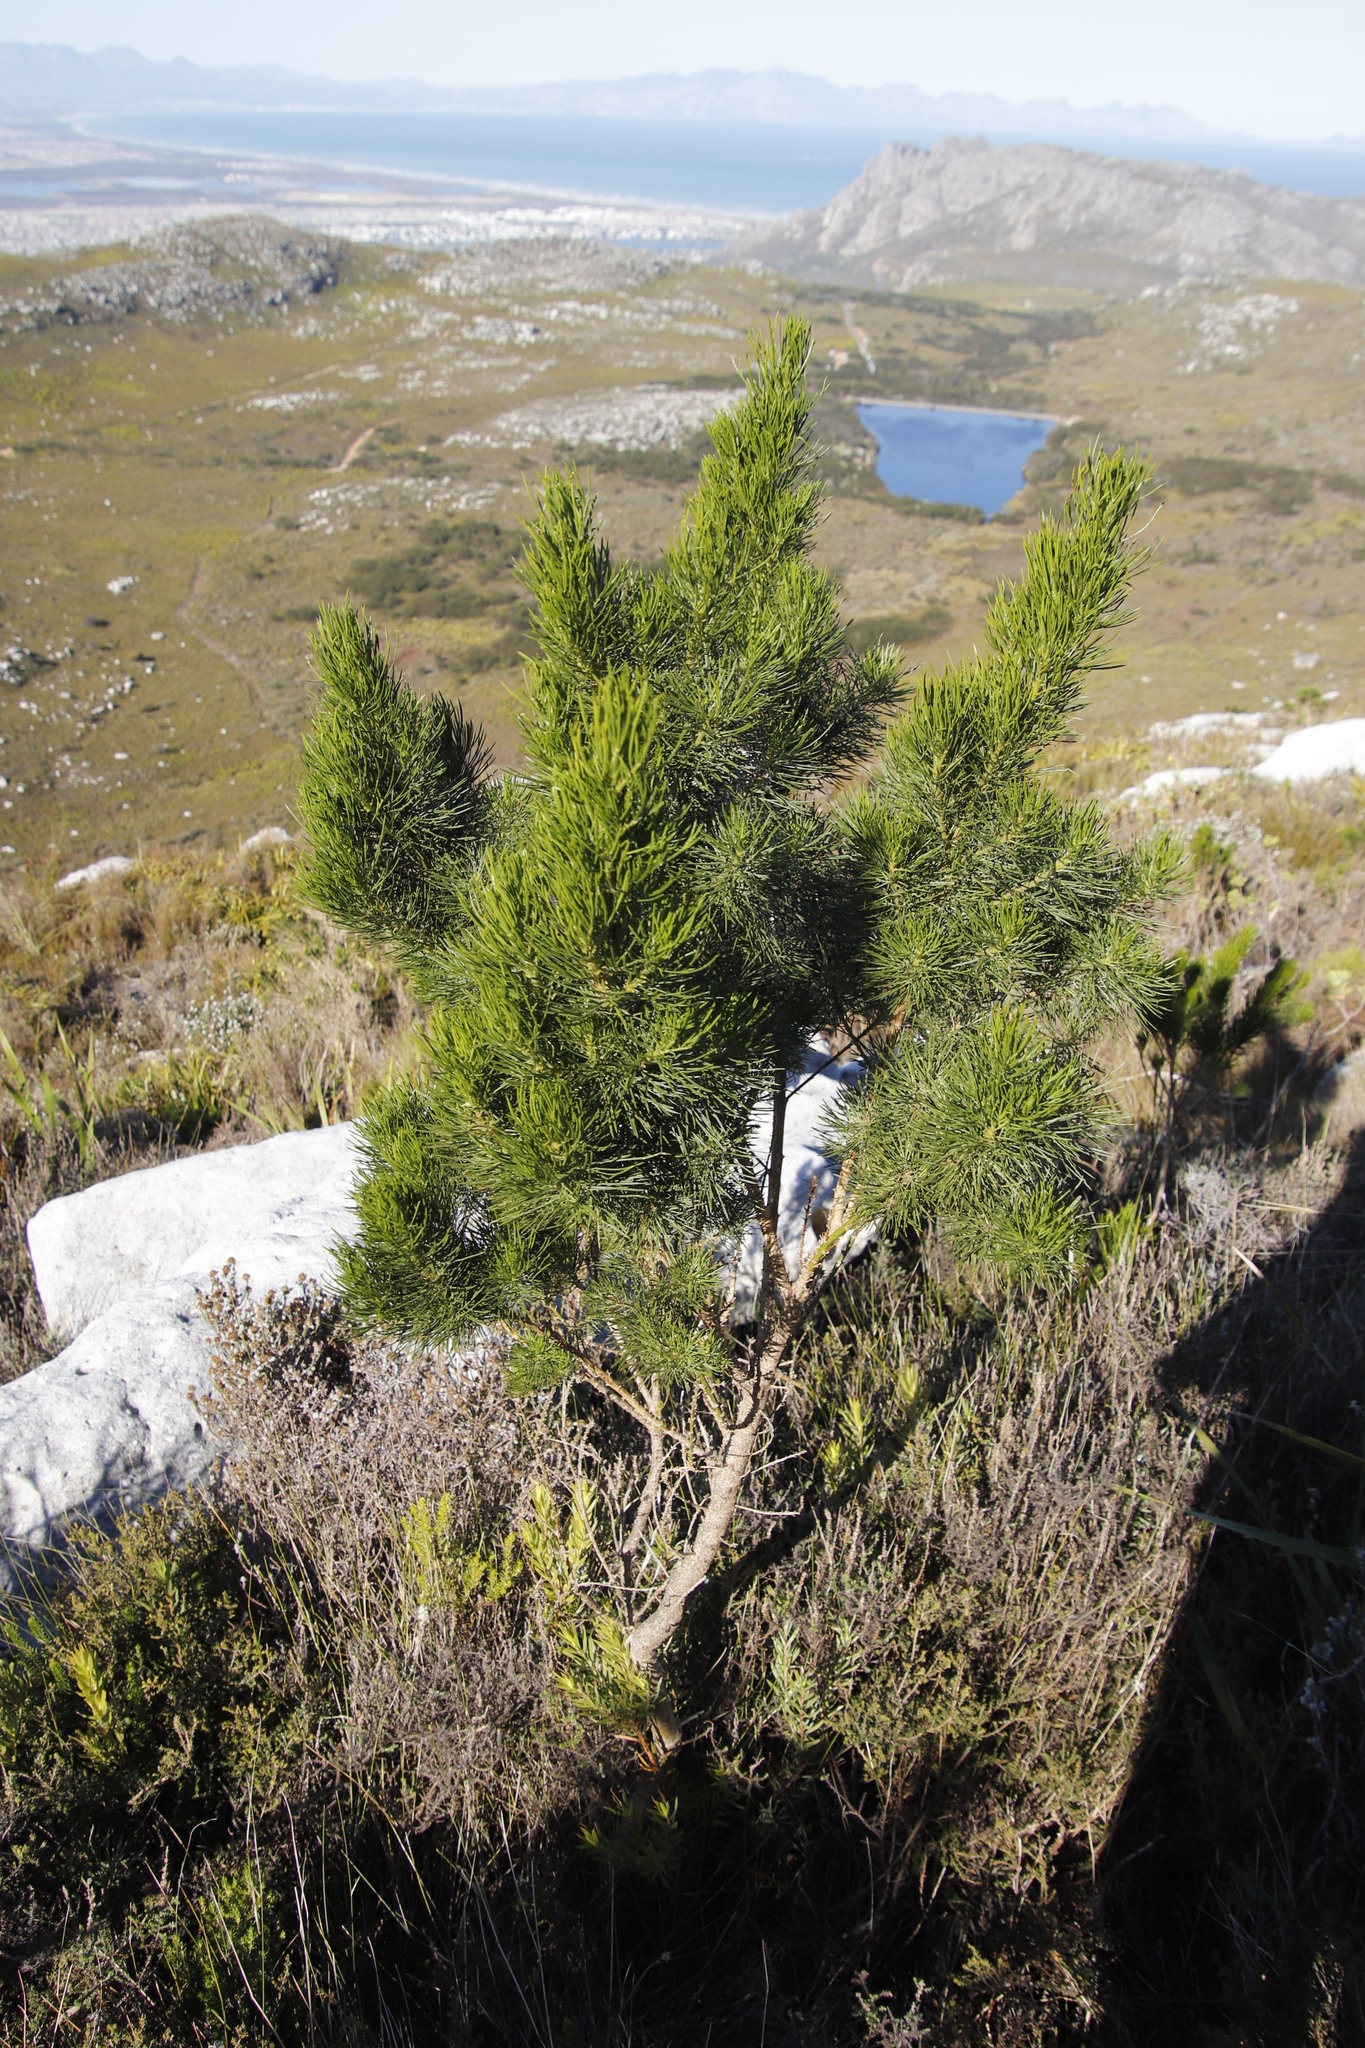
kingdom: Plantae
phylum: Tracheophyta
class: Magnoliopsida
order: Fabales
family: Fabaceae
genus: Psoralea
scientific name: Psoralea pinnata
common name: African scurfpea
